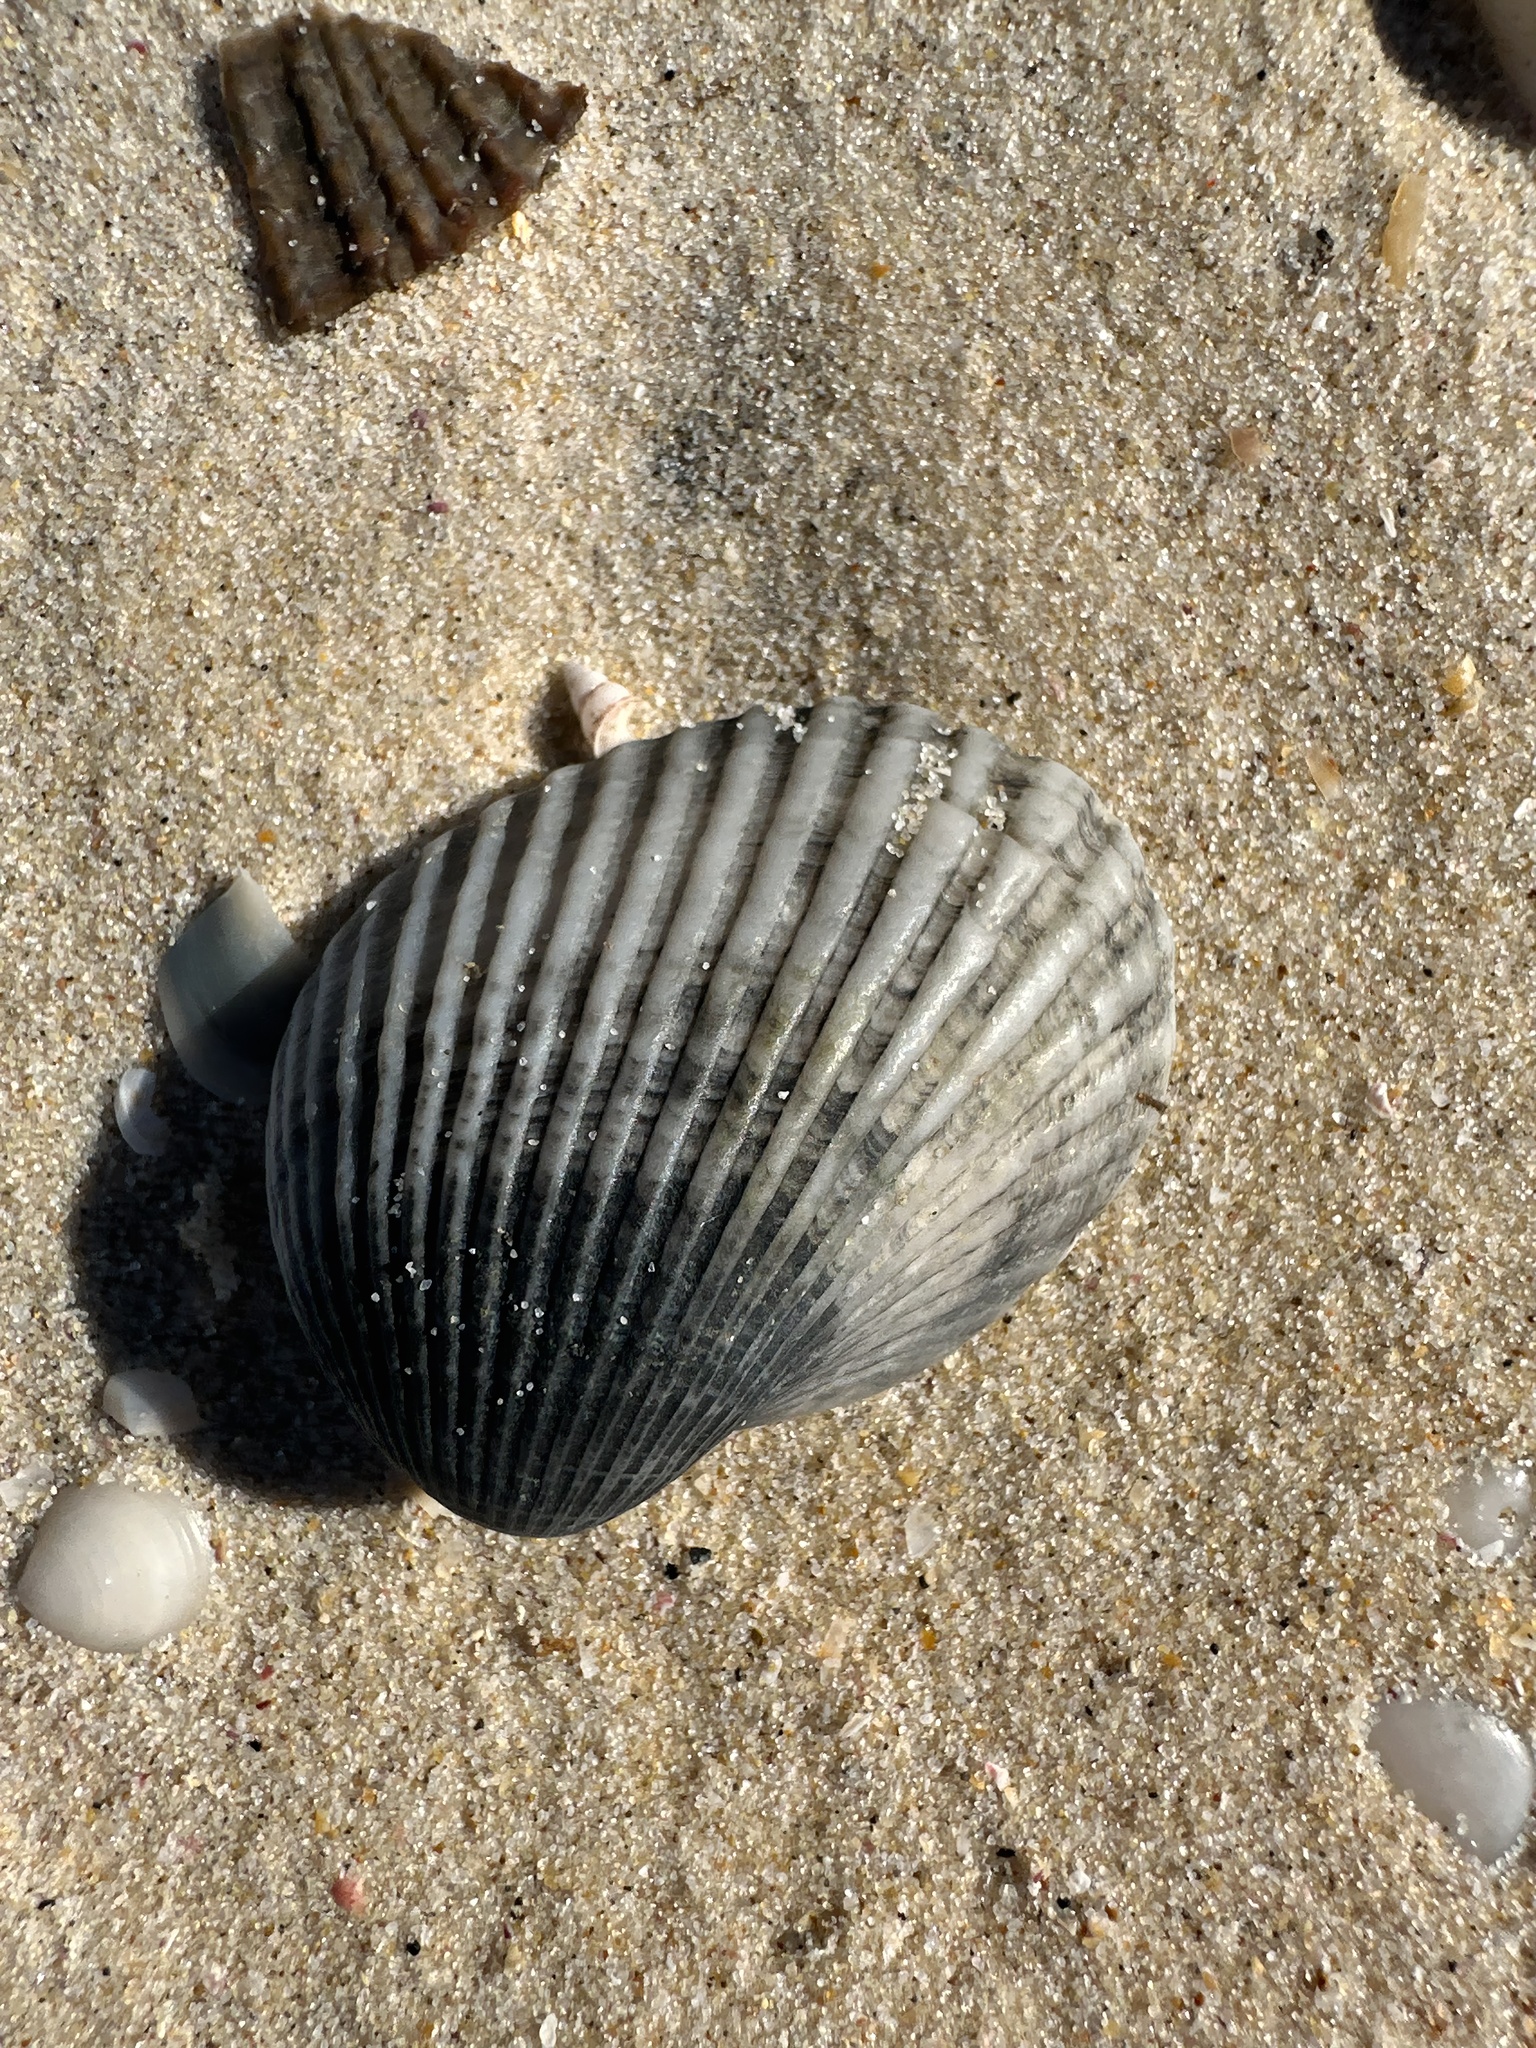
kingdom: Animalia
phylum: Mollusca
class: Bivalvia
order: Arcida
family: Arcidae
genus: Anadara
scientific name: Anadara trapezia
